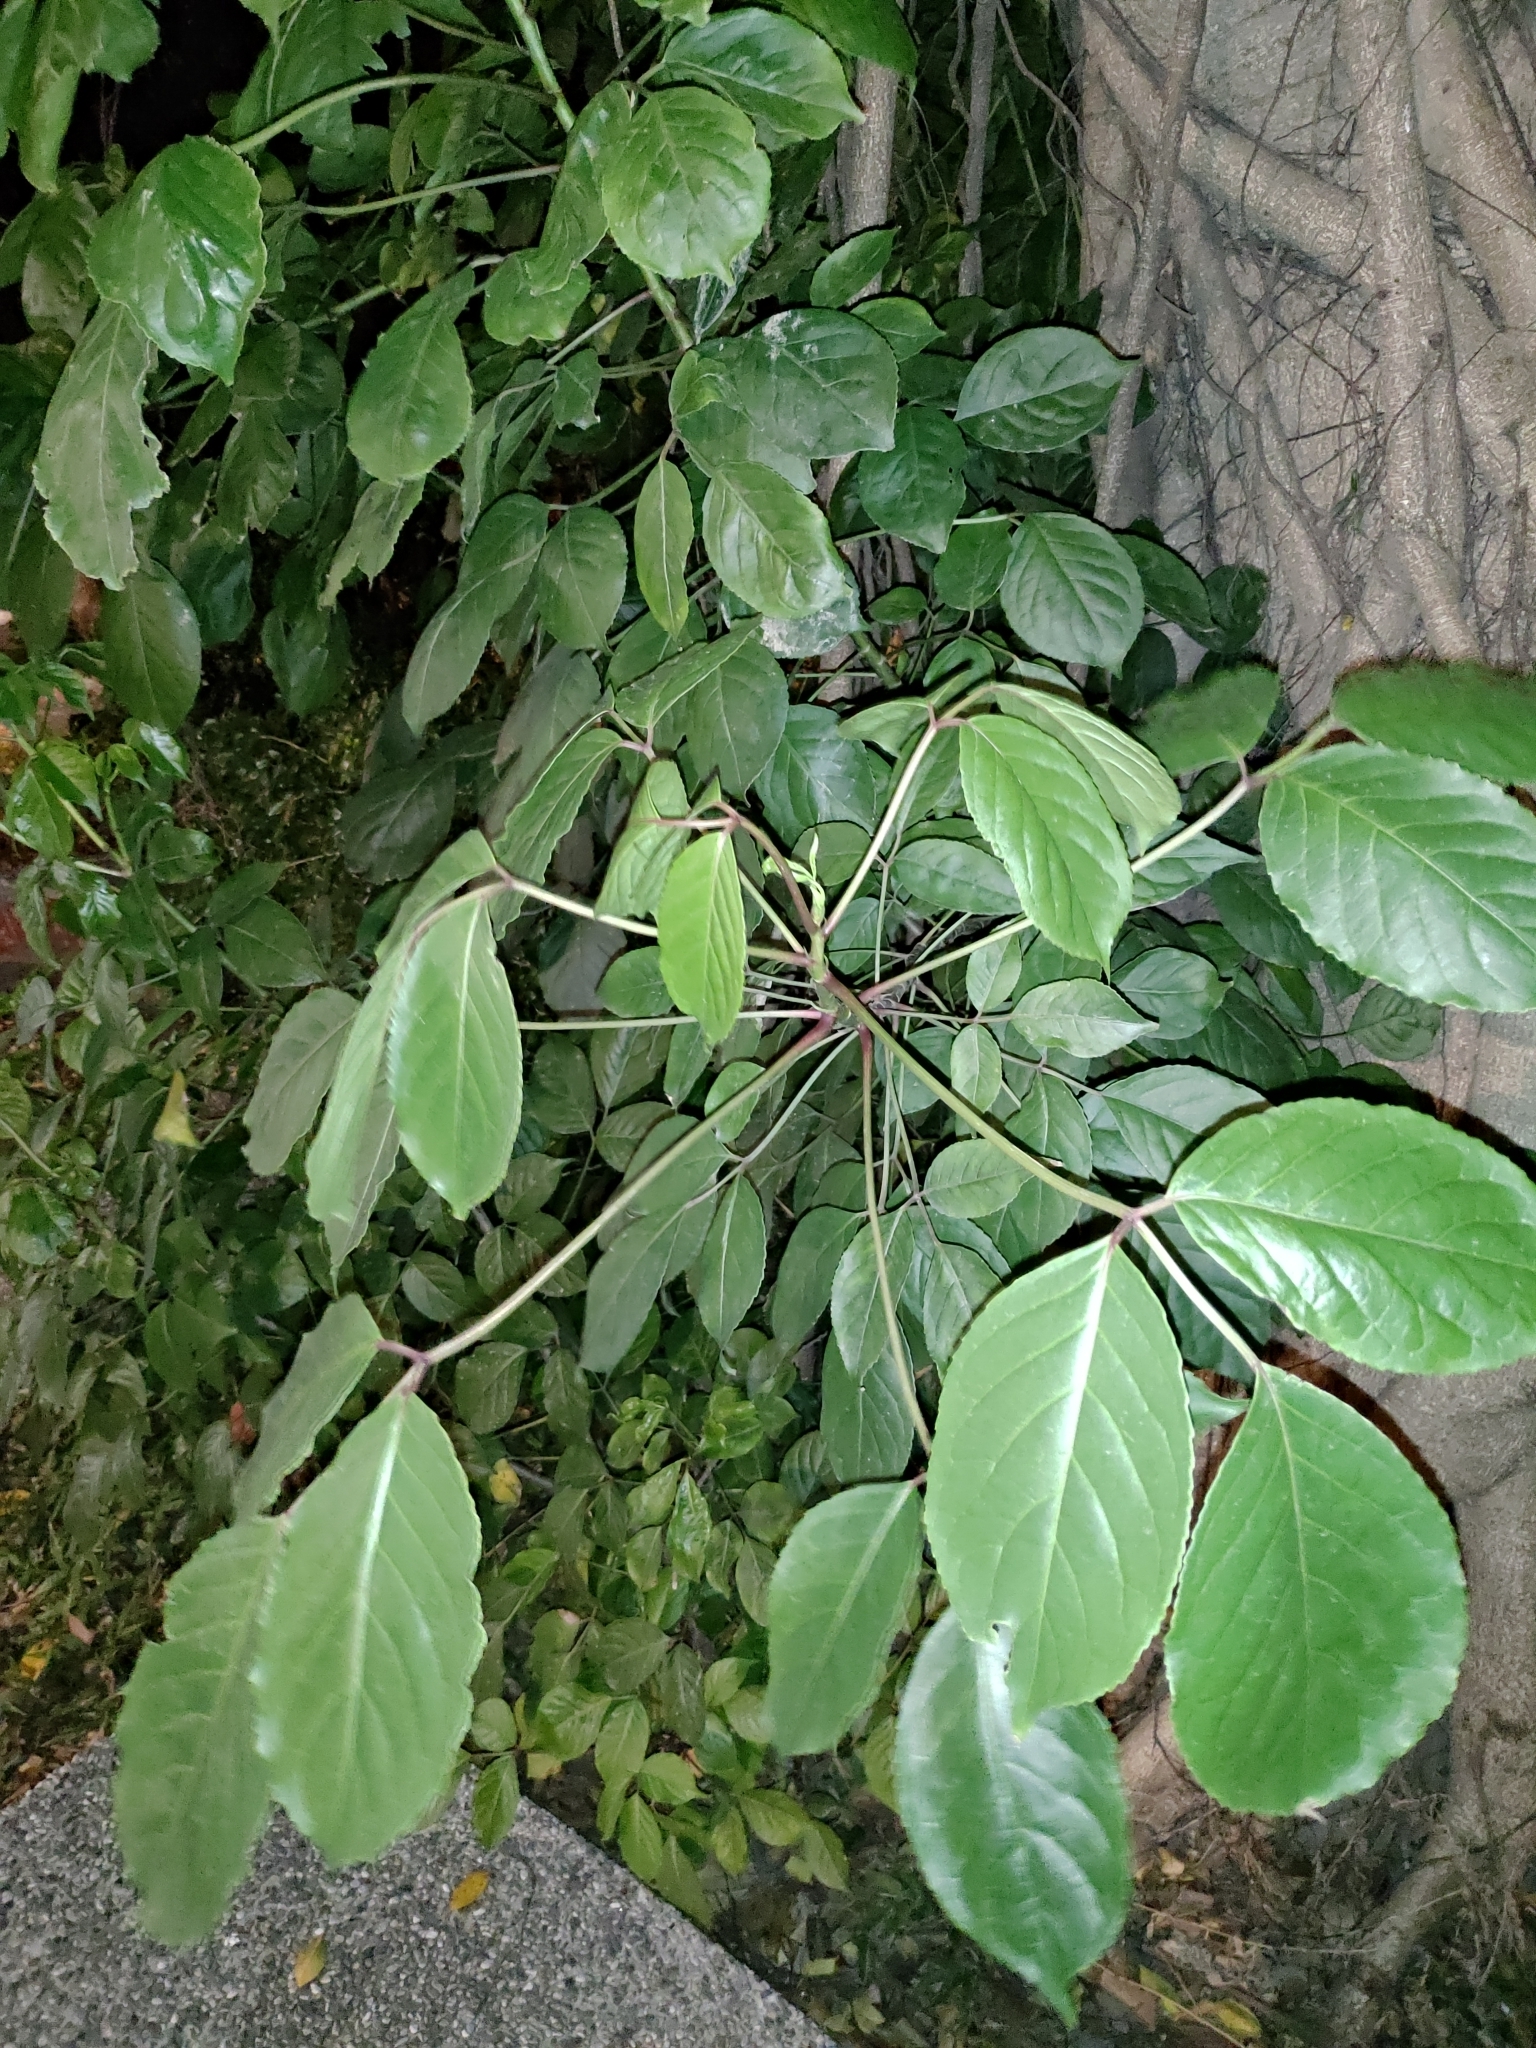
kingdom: Plantae
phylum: Tracheophyta
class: Magnoliopsida
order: Malpighiales
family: Phyllanthaceae
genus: Bischofia
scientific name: Bischofia javanica
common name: Javanese bishopwood
